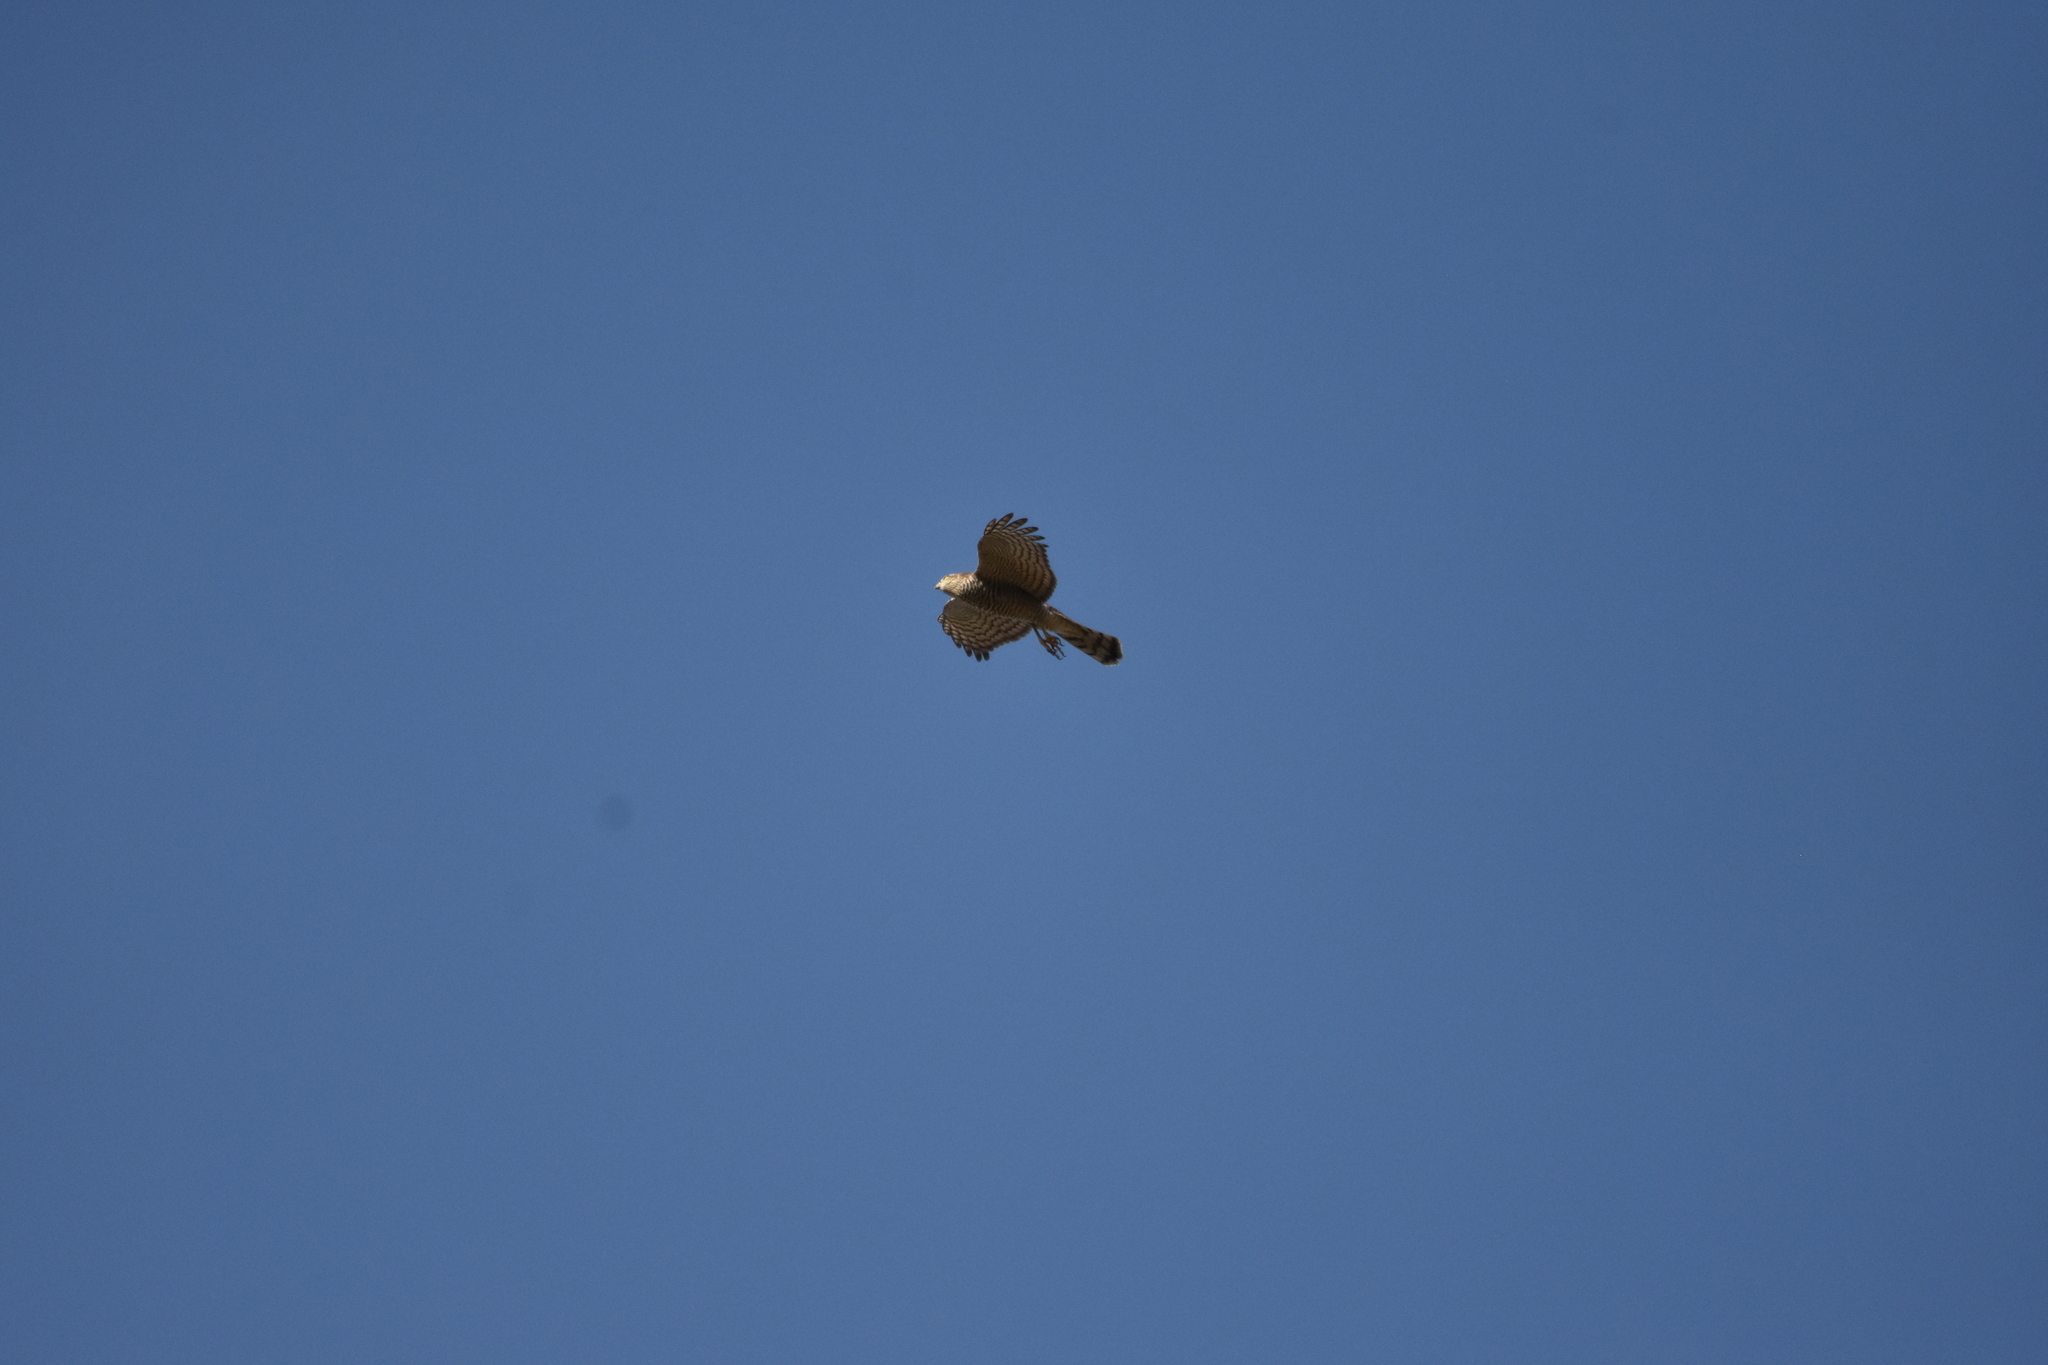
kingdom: Animalia
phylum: Chordata
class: Aves
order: Accipitriformes
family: Accipitridae
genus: Accipiter
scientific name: Accipiter nisus
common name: Eurasian sparrowhawk
